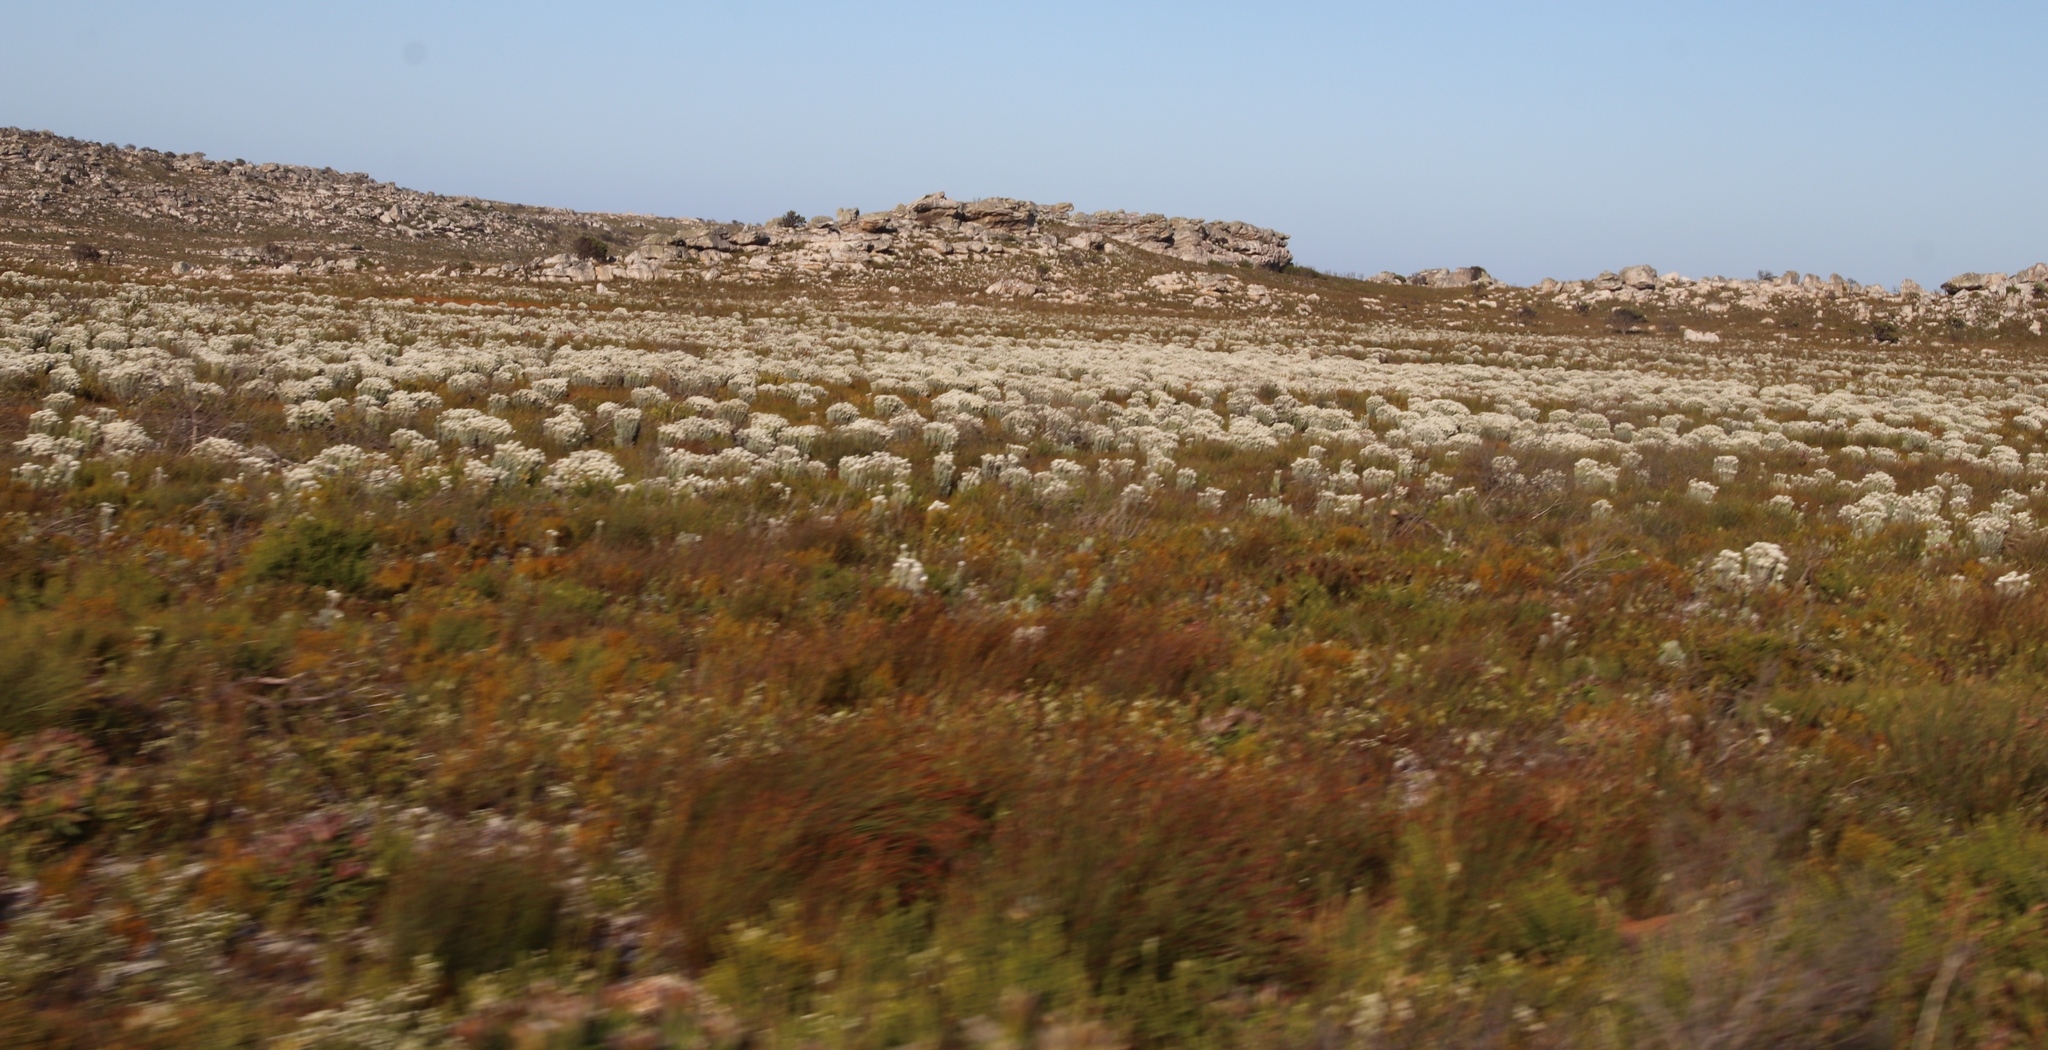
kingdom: Plantae
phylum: Tracheophyta
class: Magnoliopsida
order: Asterales
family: Asteraceae
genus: Syncarpha
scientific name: Syncarpha vestita
